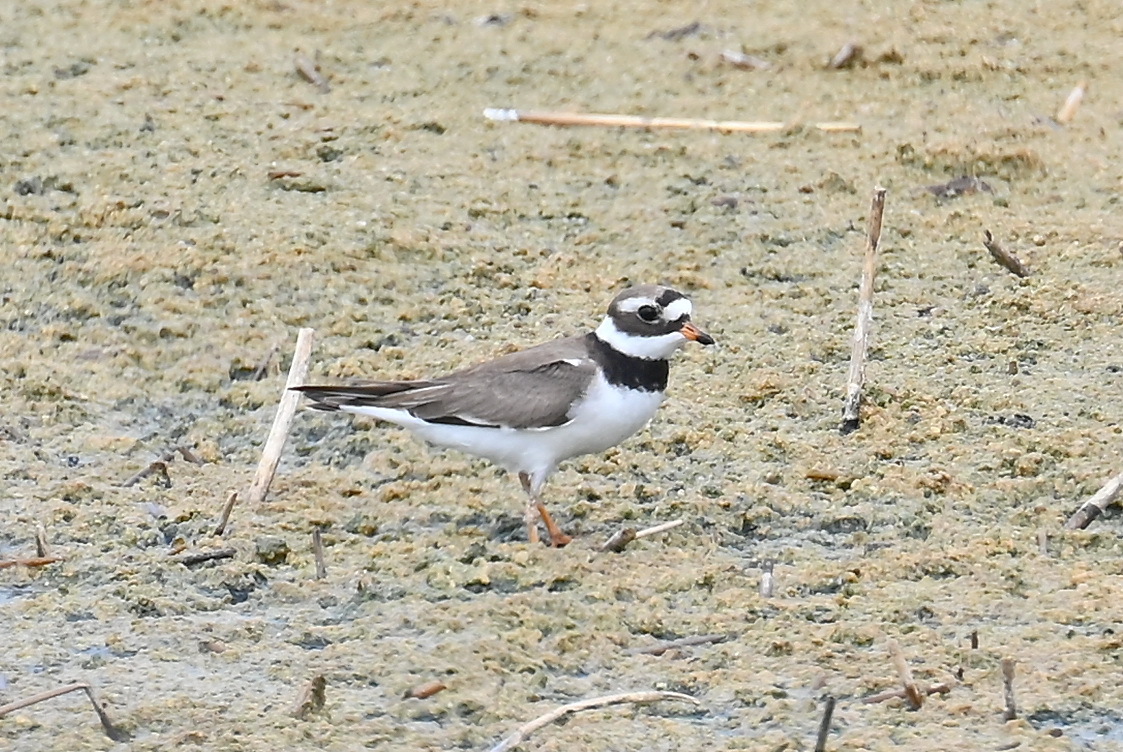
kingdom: Animalia
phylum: Chordata
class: Aves
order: Charadriiformes
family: Charadriidae
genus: Charadrius
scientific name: Charadrius hiaticula
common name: Common ringed plover
